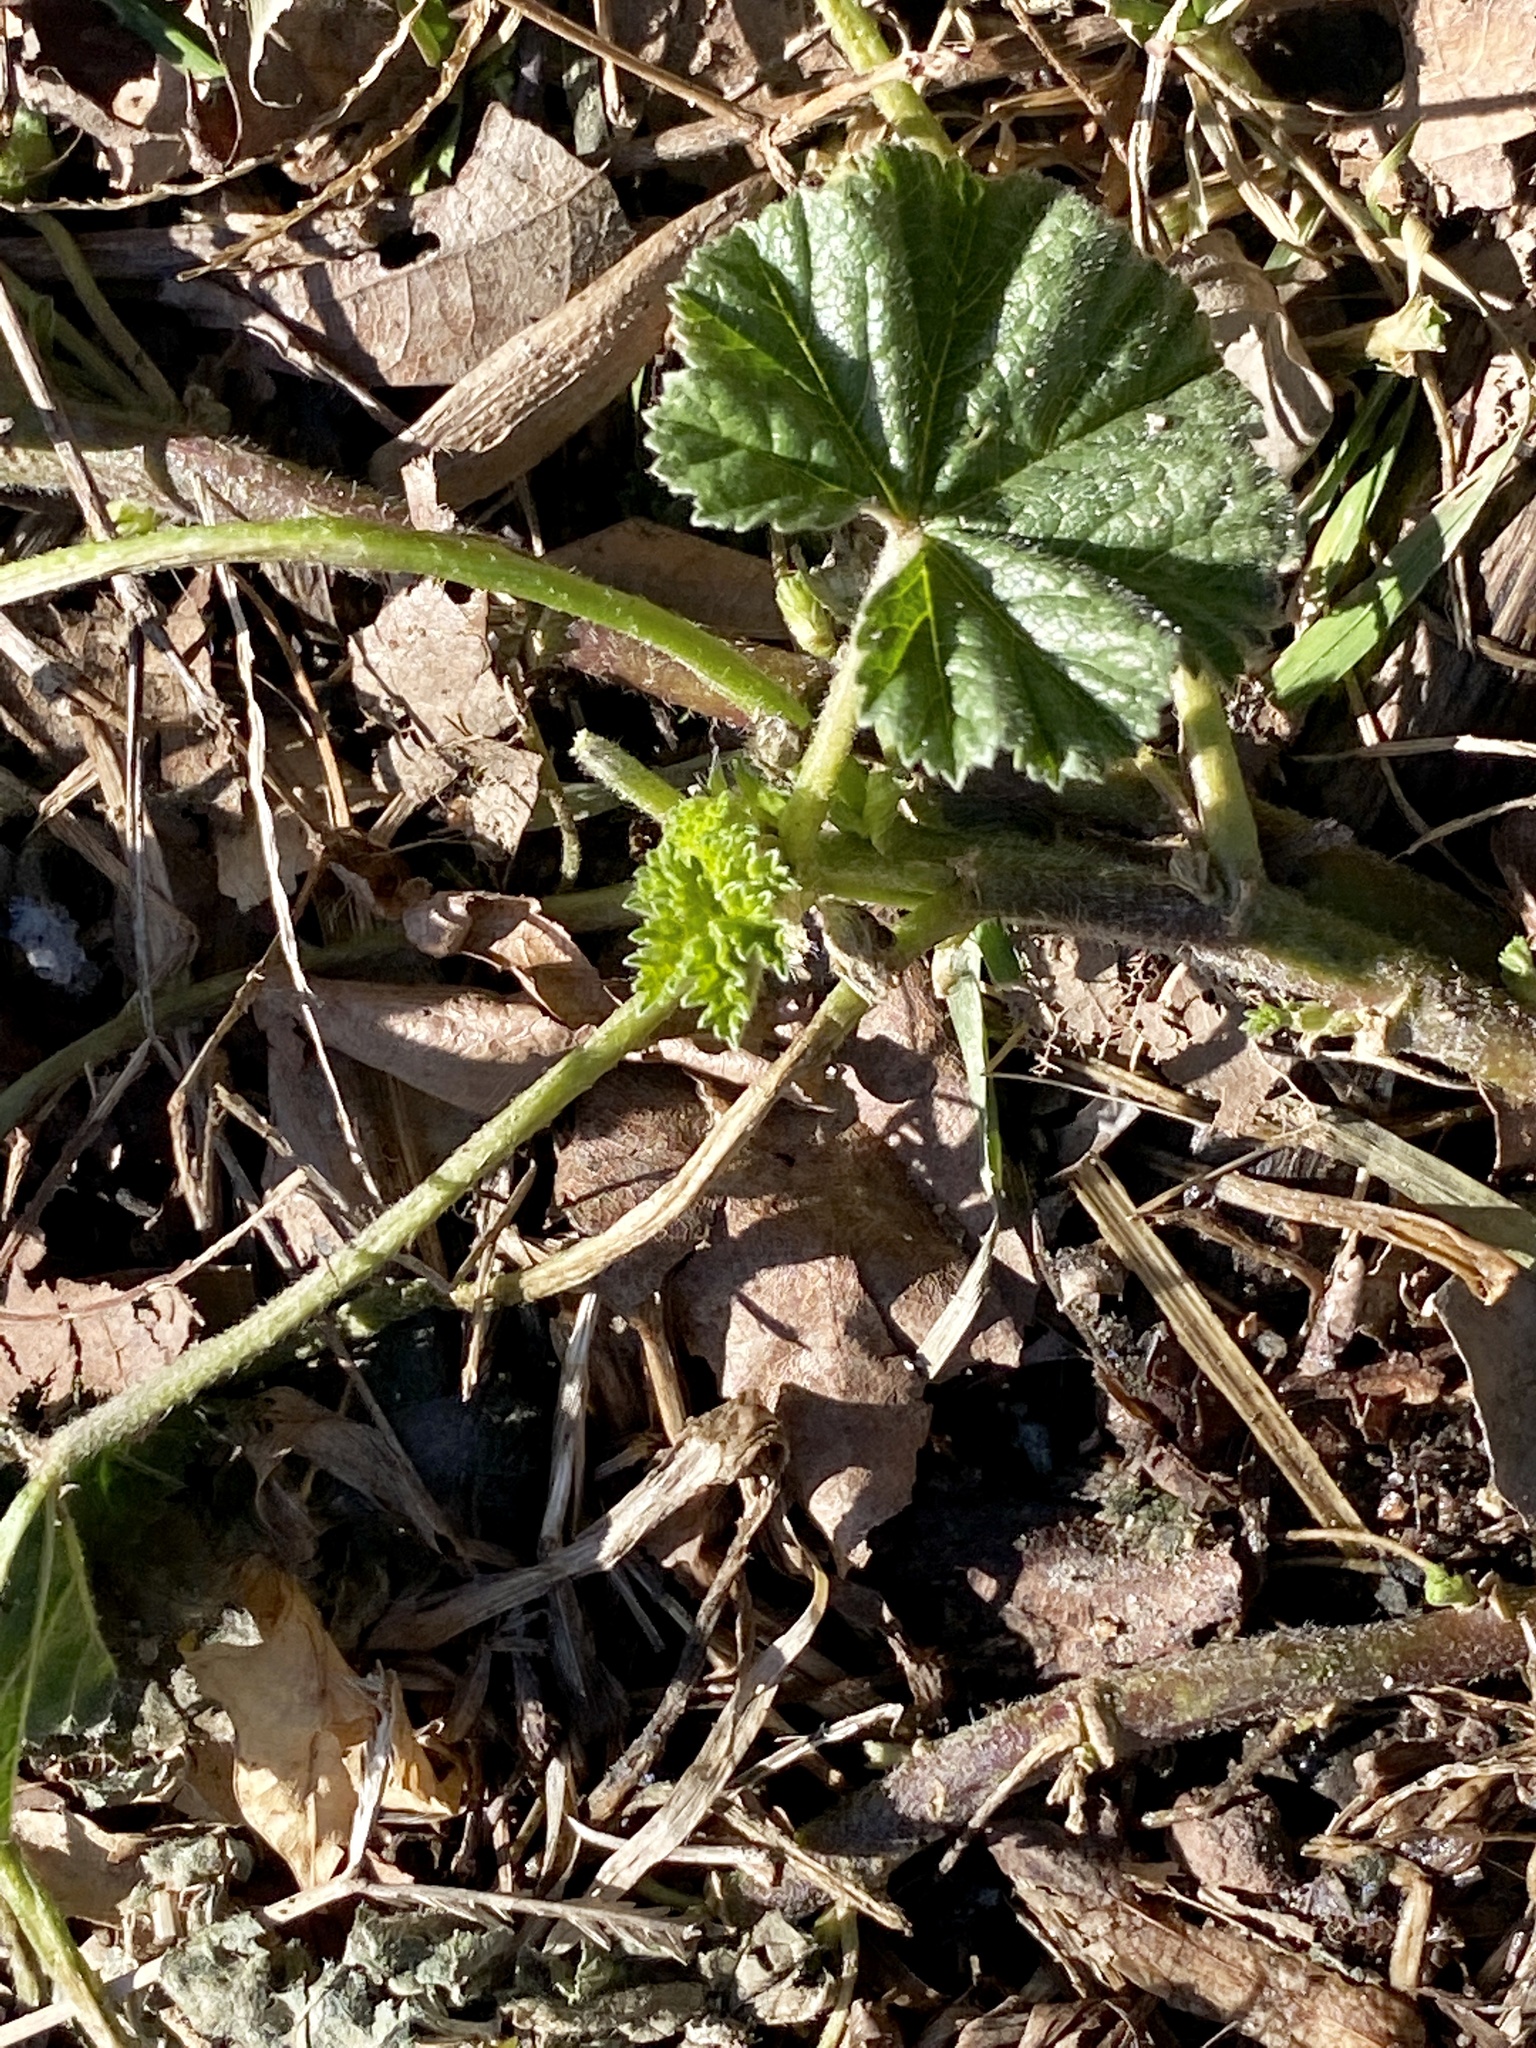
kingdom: Plantae
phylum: Tracheophyta
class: Magnoliopsida
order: Malvales
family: Malvaceae
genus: Malva
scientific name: Malva neglecta
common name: Common mallow
